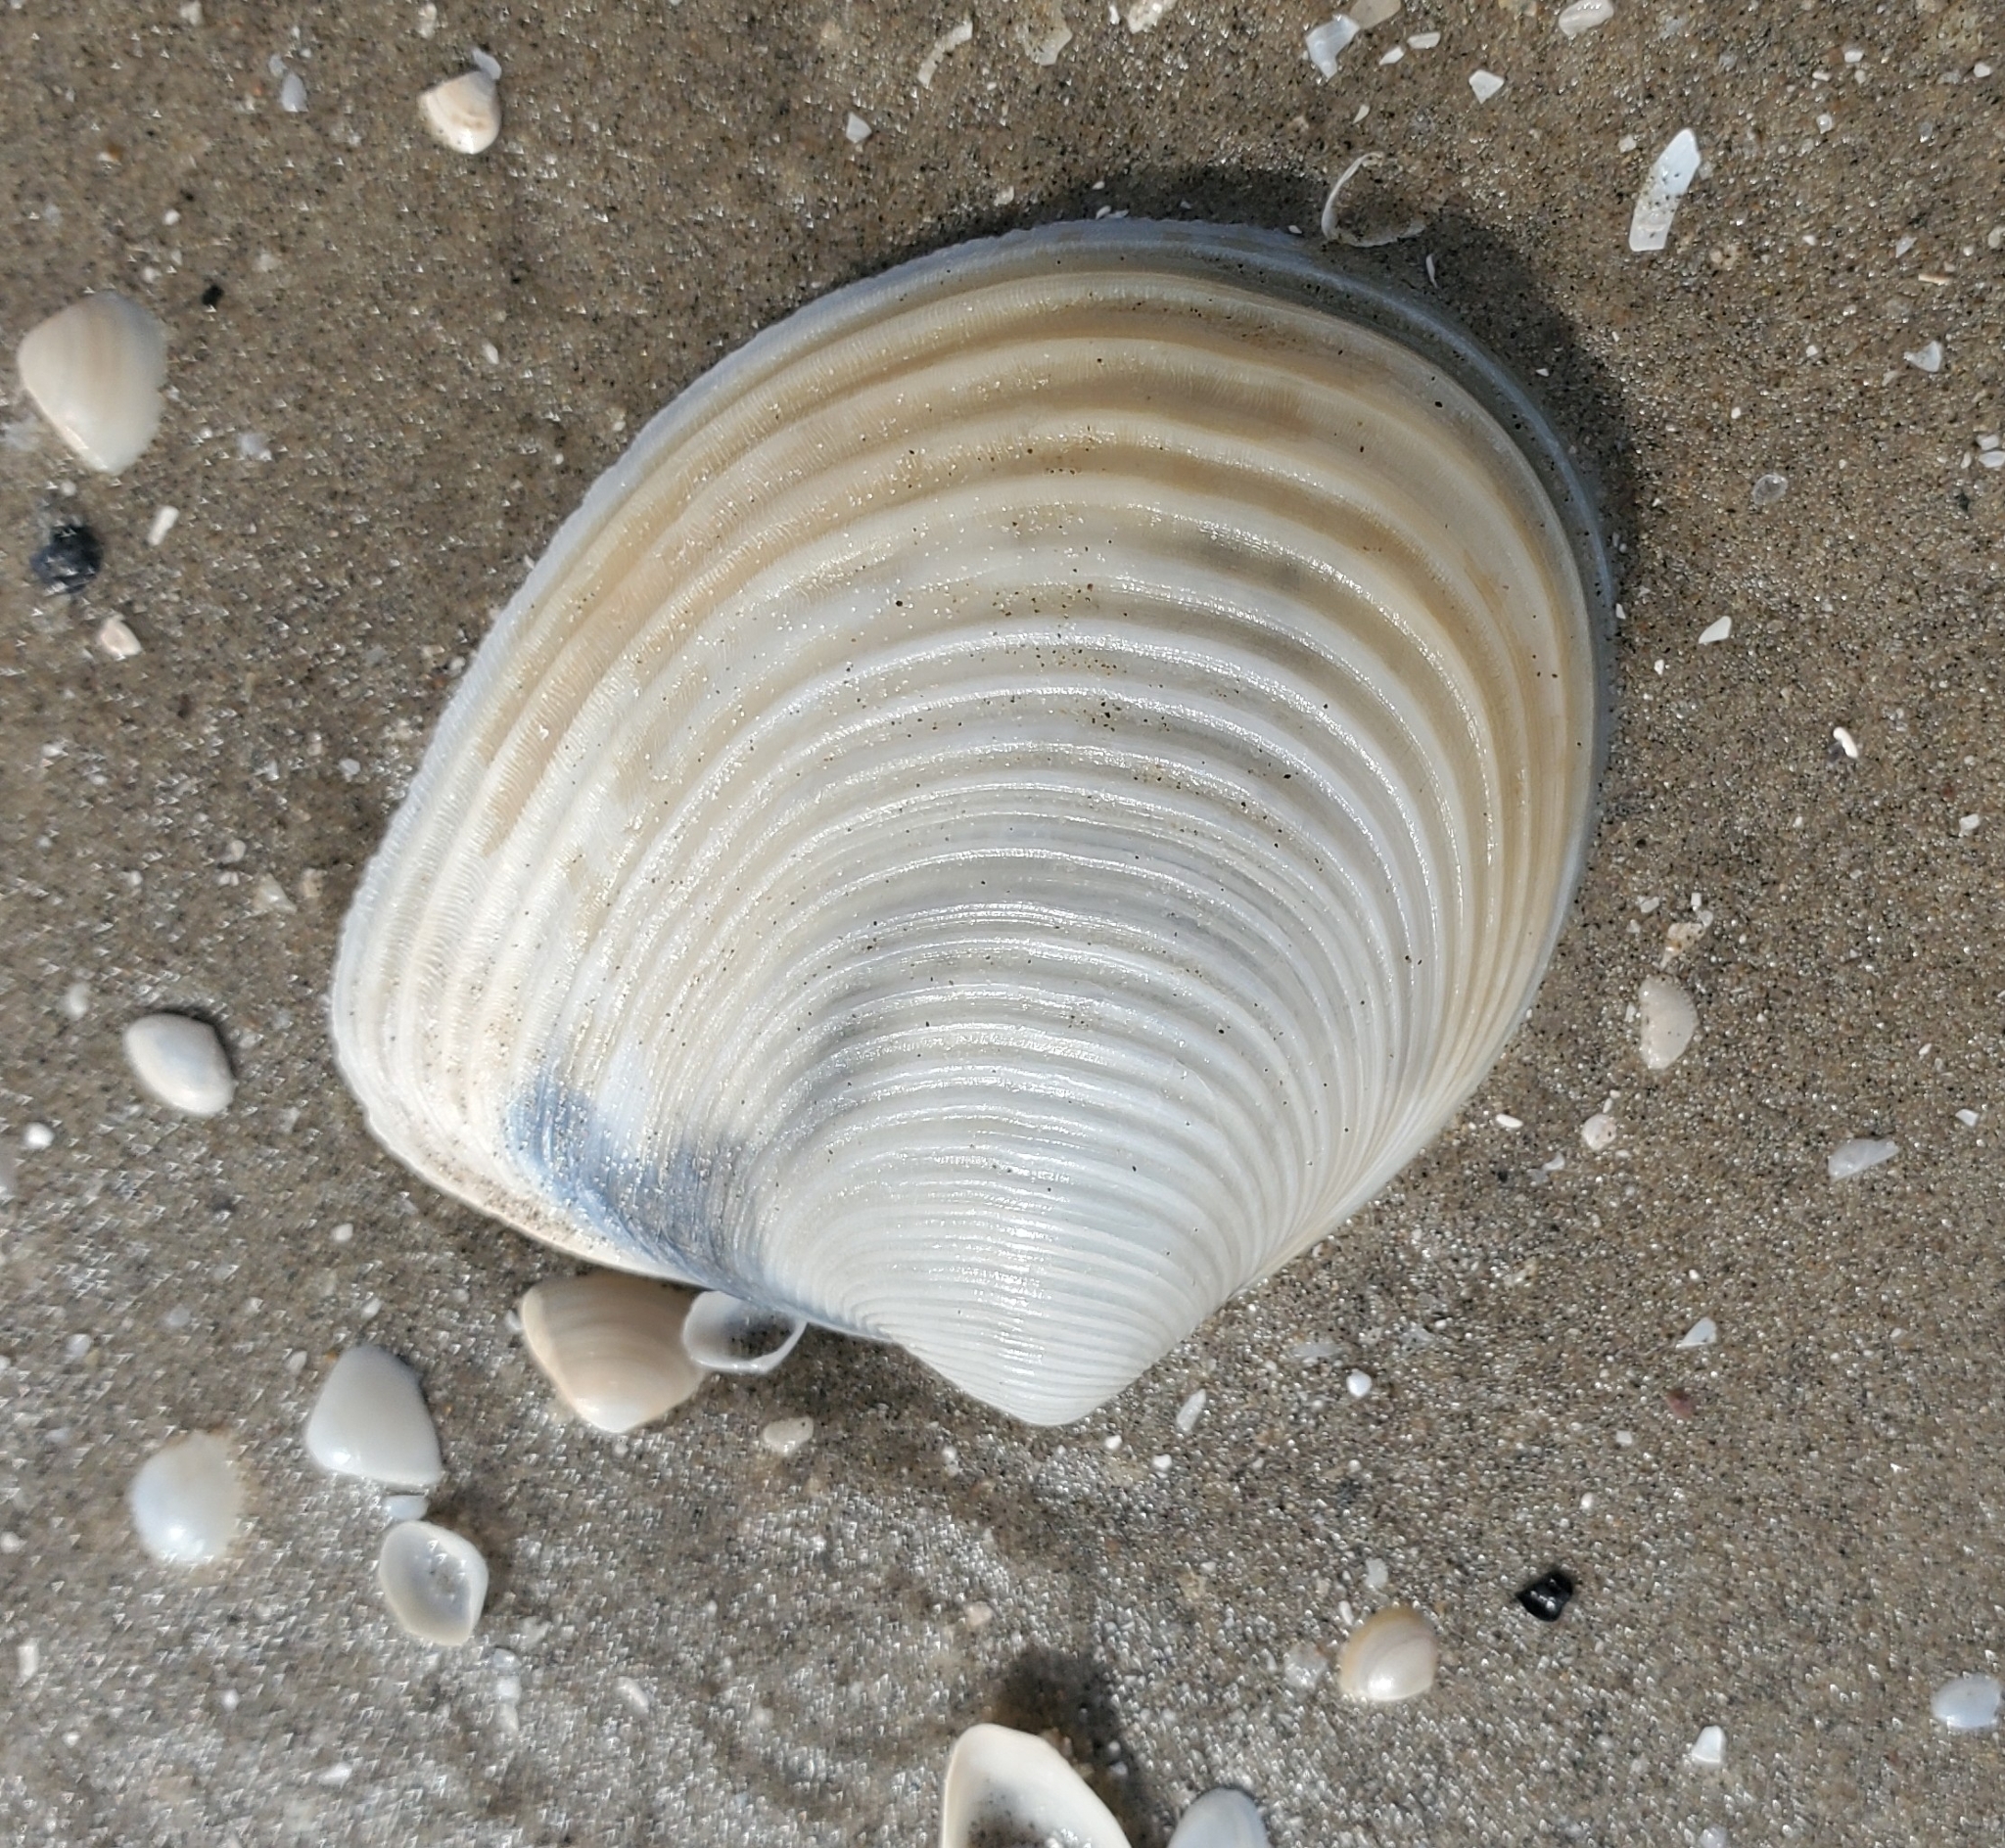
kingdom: Animalia
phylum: Mollusca
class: Bivalvia
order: Venerida
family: Anatinellidae
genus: Raeta
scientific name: Raeta plicatella
